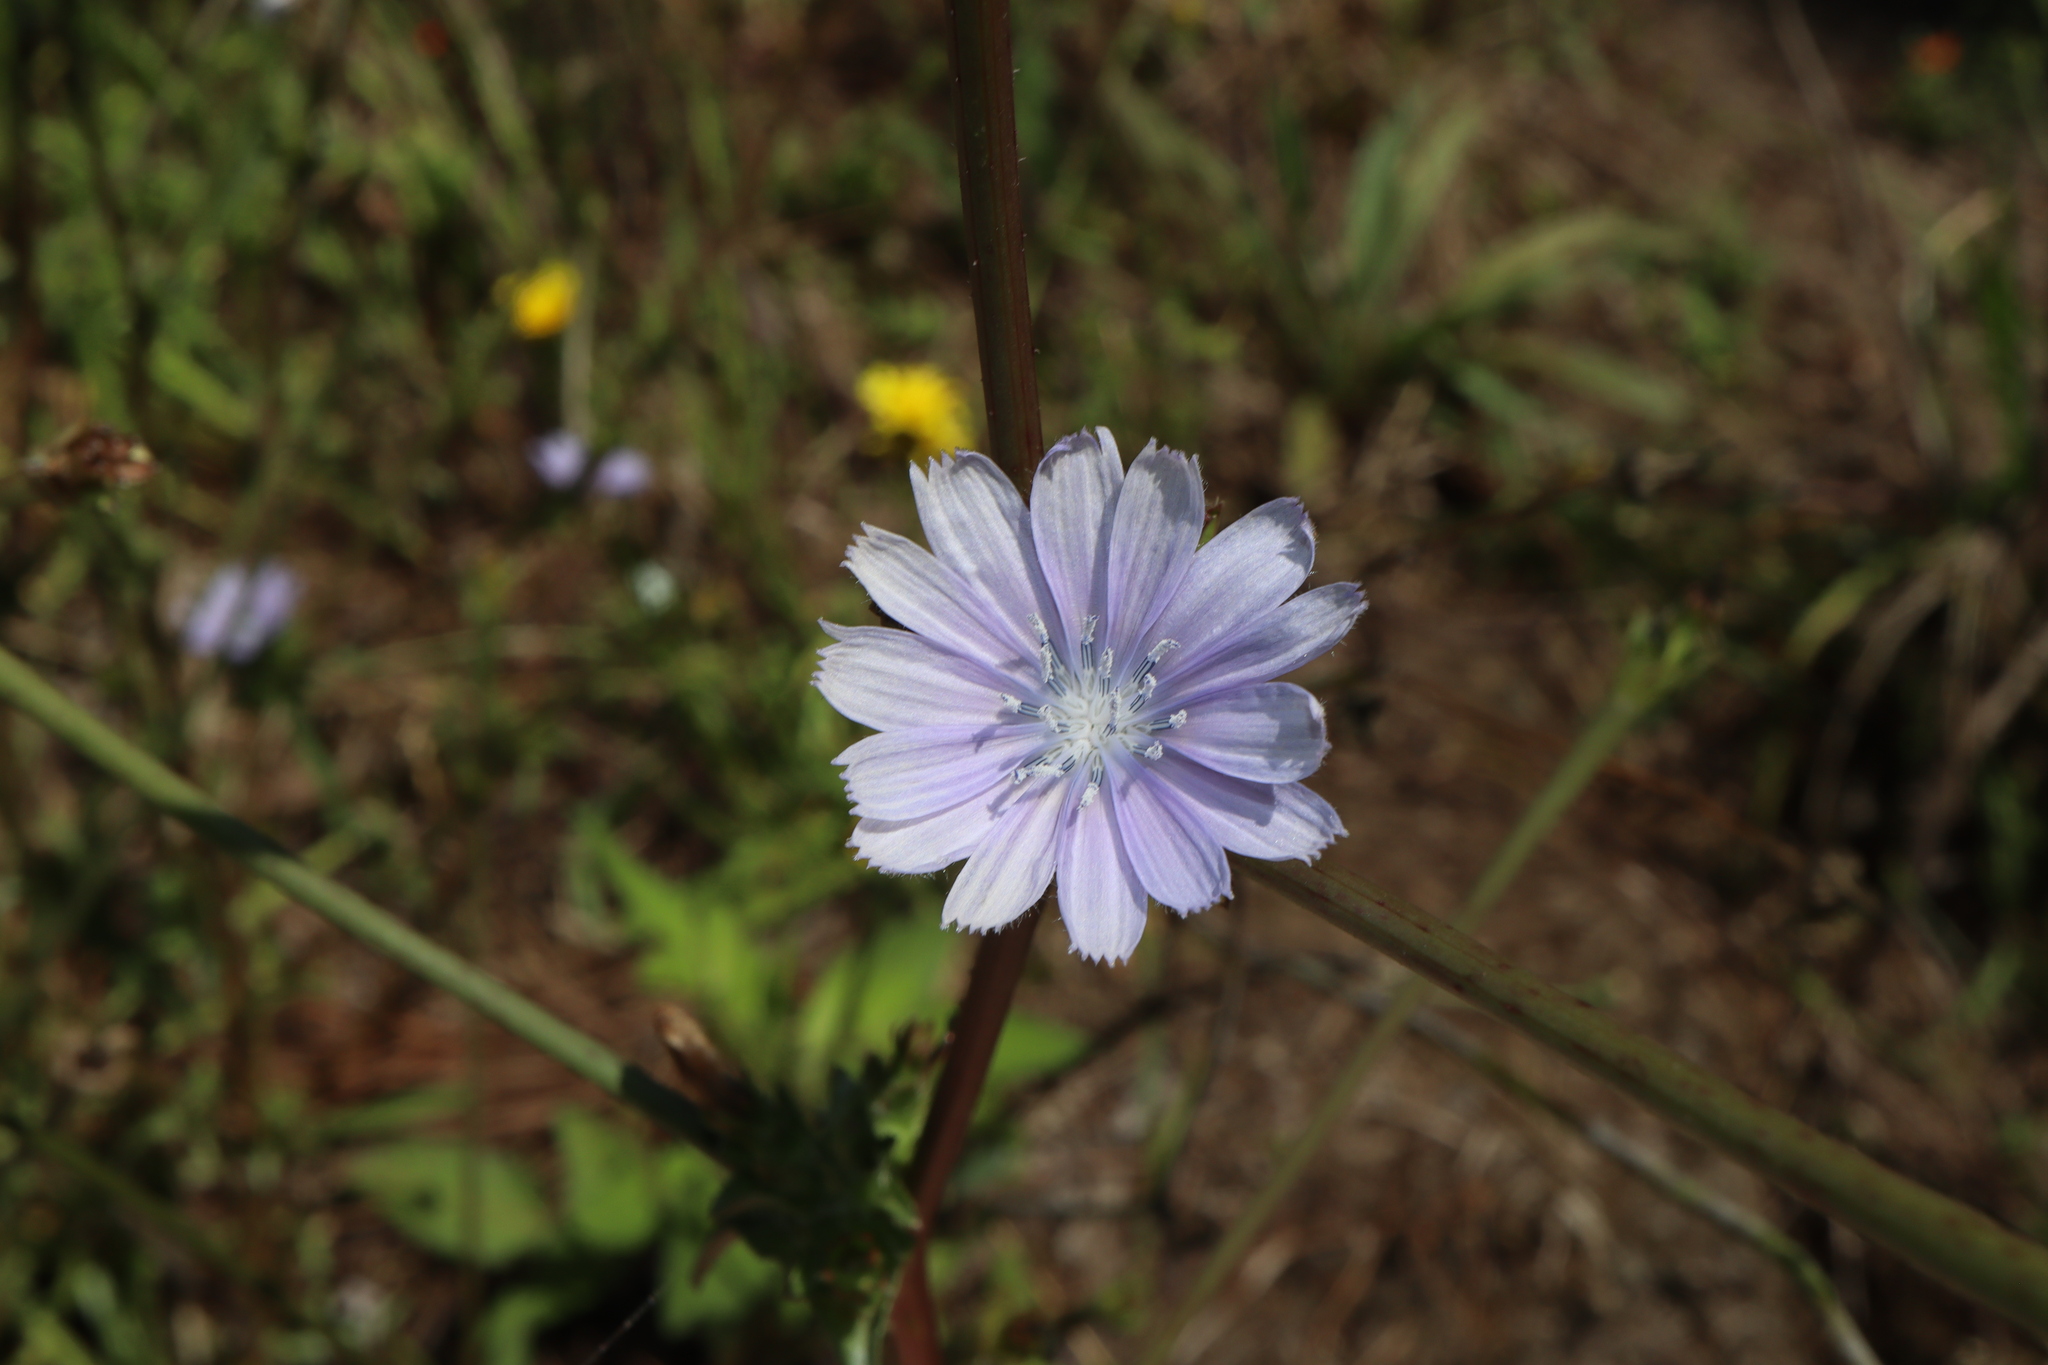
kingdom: Plantae
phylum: Tracheophyta
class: Magnoliopsida
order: Asterales
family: Asteraceae
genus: Cichorium
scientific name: Cichorium intybus
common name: Chicory
